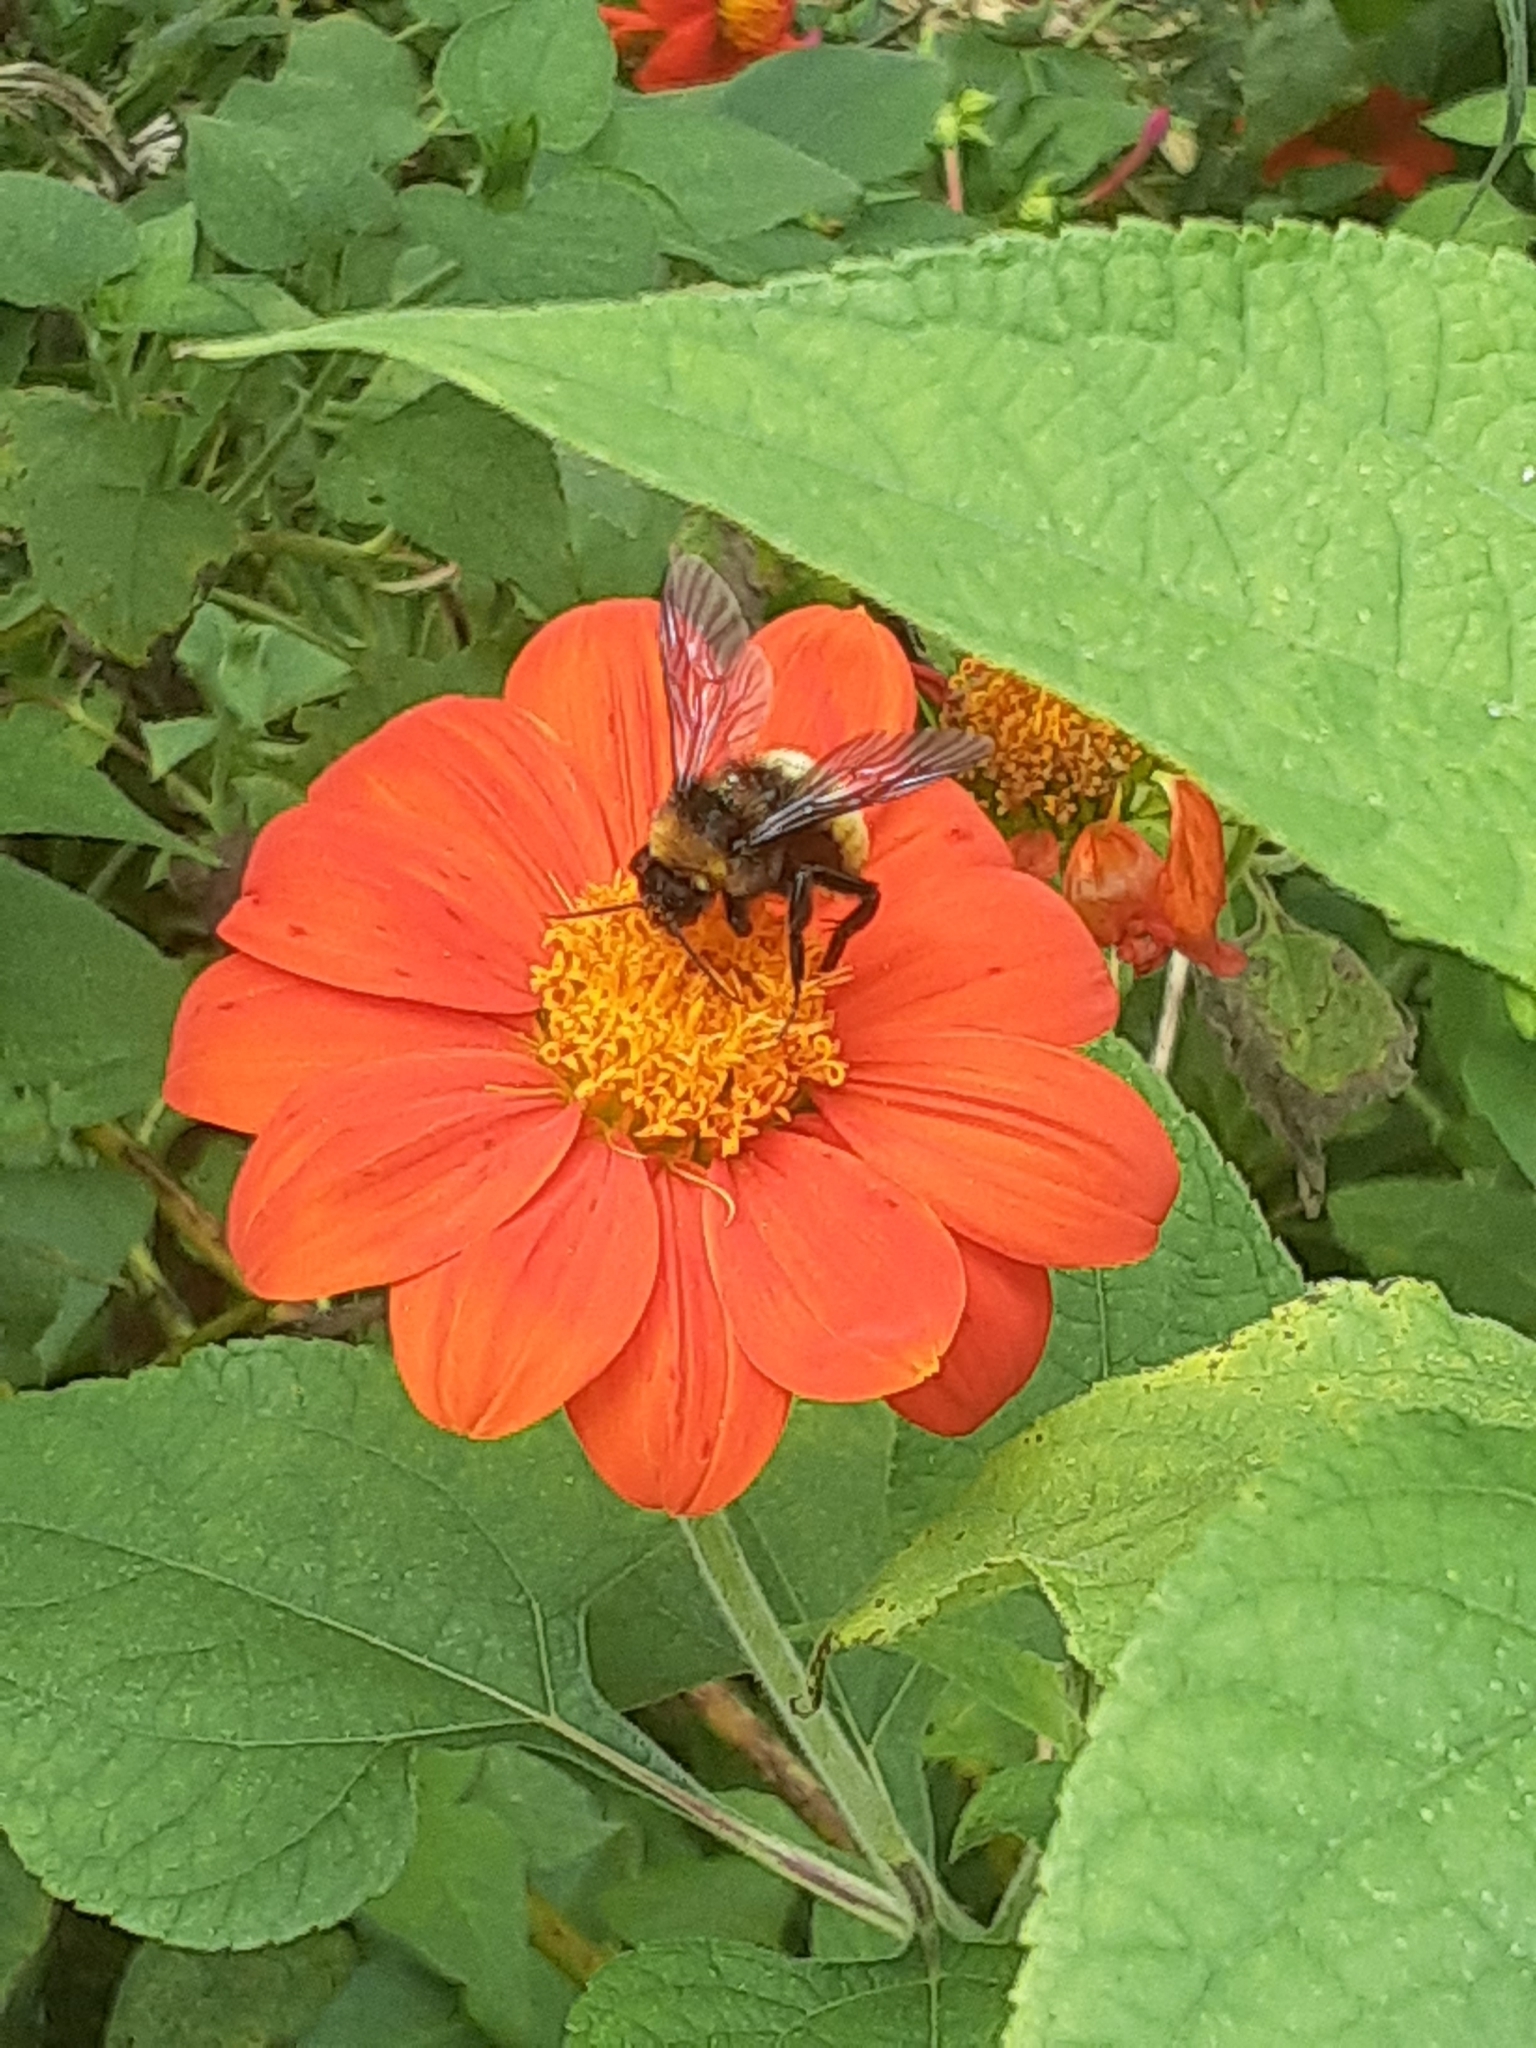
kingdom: Animalia
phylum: Arthropoda
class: Insecta
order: Hymenoptera
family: Apidae
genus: Bombus
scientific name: Bombus pensylvanicus
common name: Bumble bee
